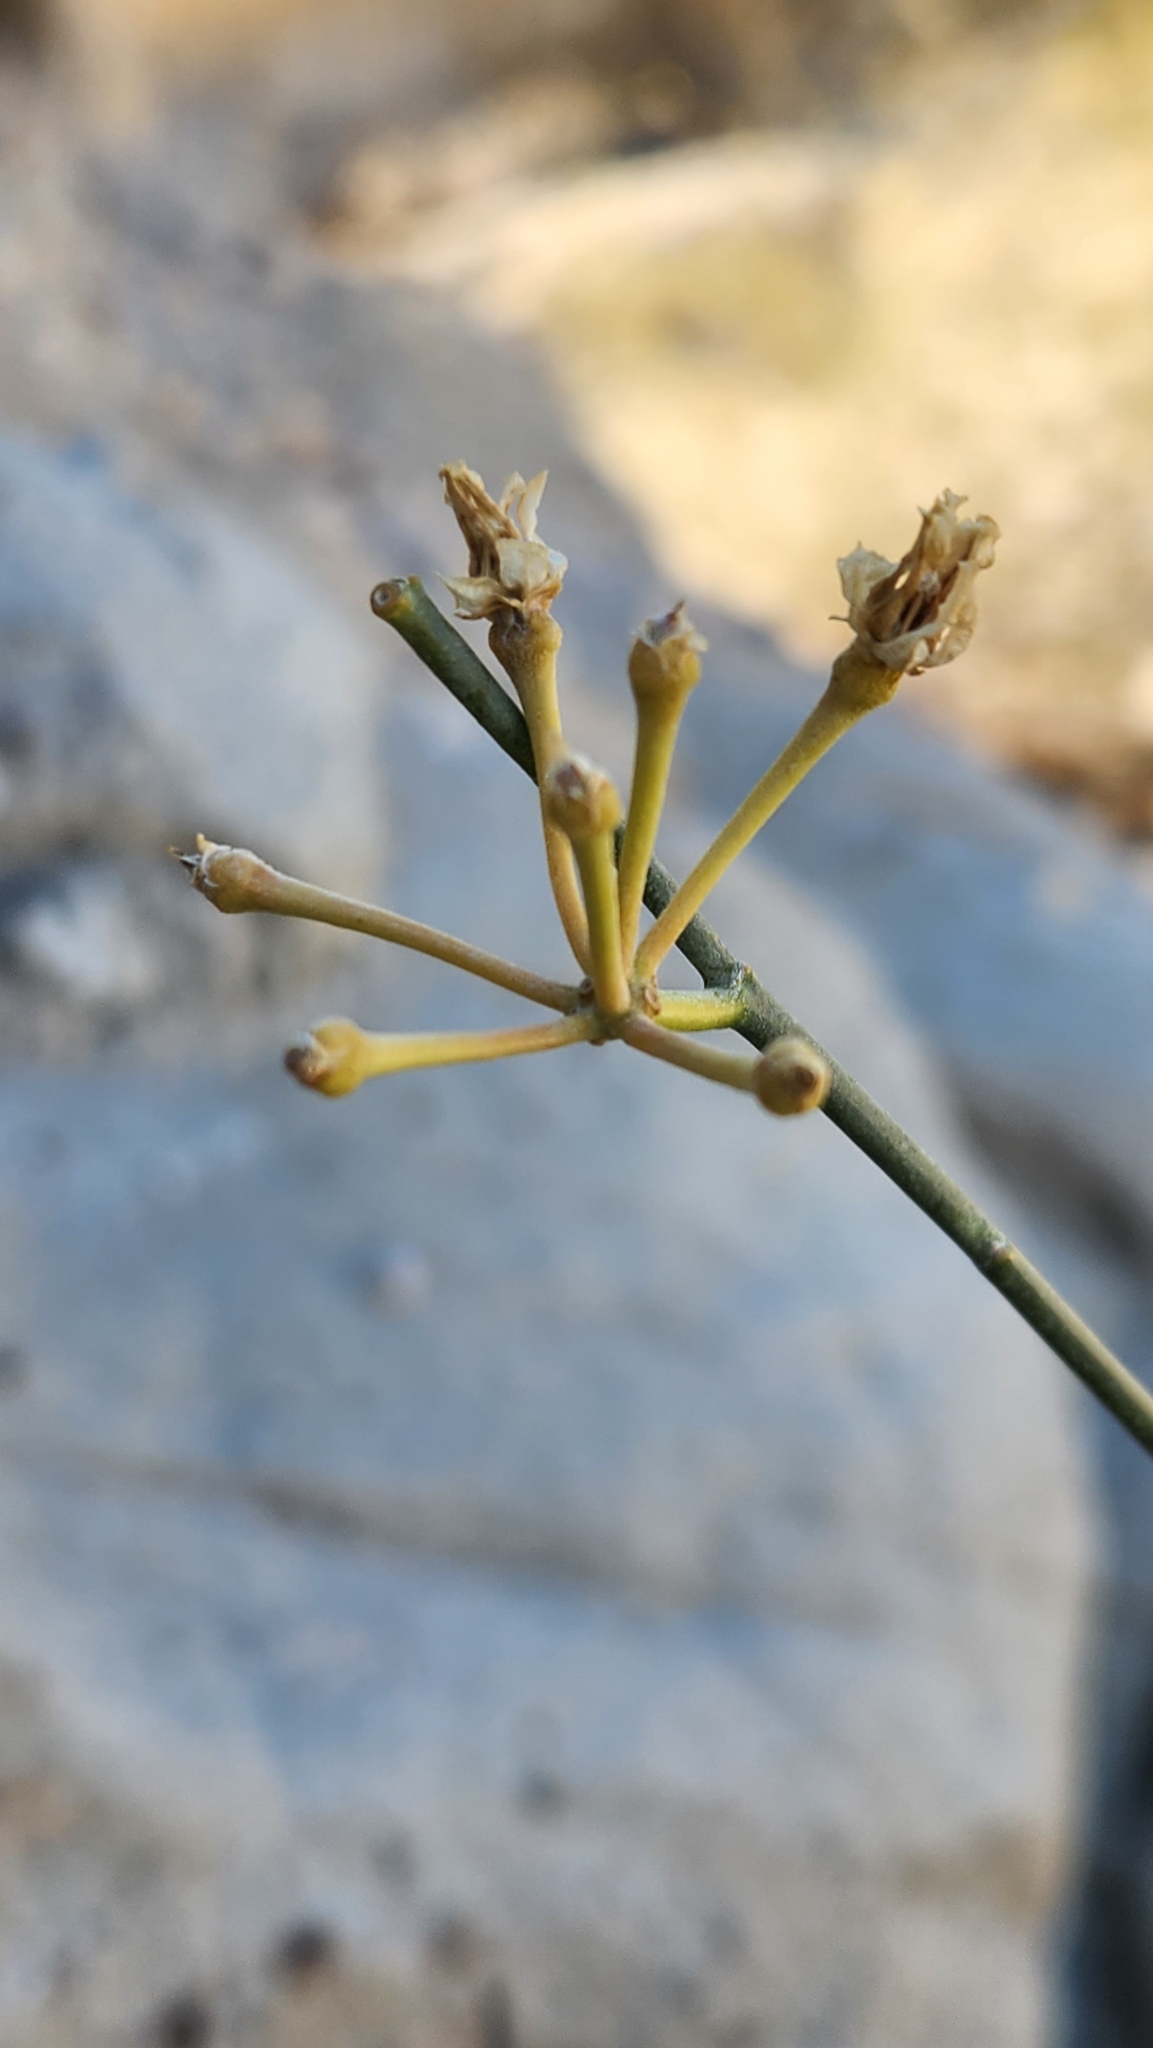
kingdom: Plantae
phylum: Tracheophyta
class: Magnoliopsida
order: Gentianales
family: Apocynaceae
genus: Asclepias
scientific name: Asclepias subulata
